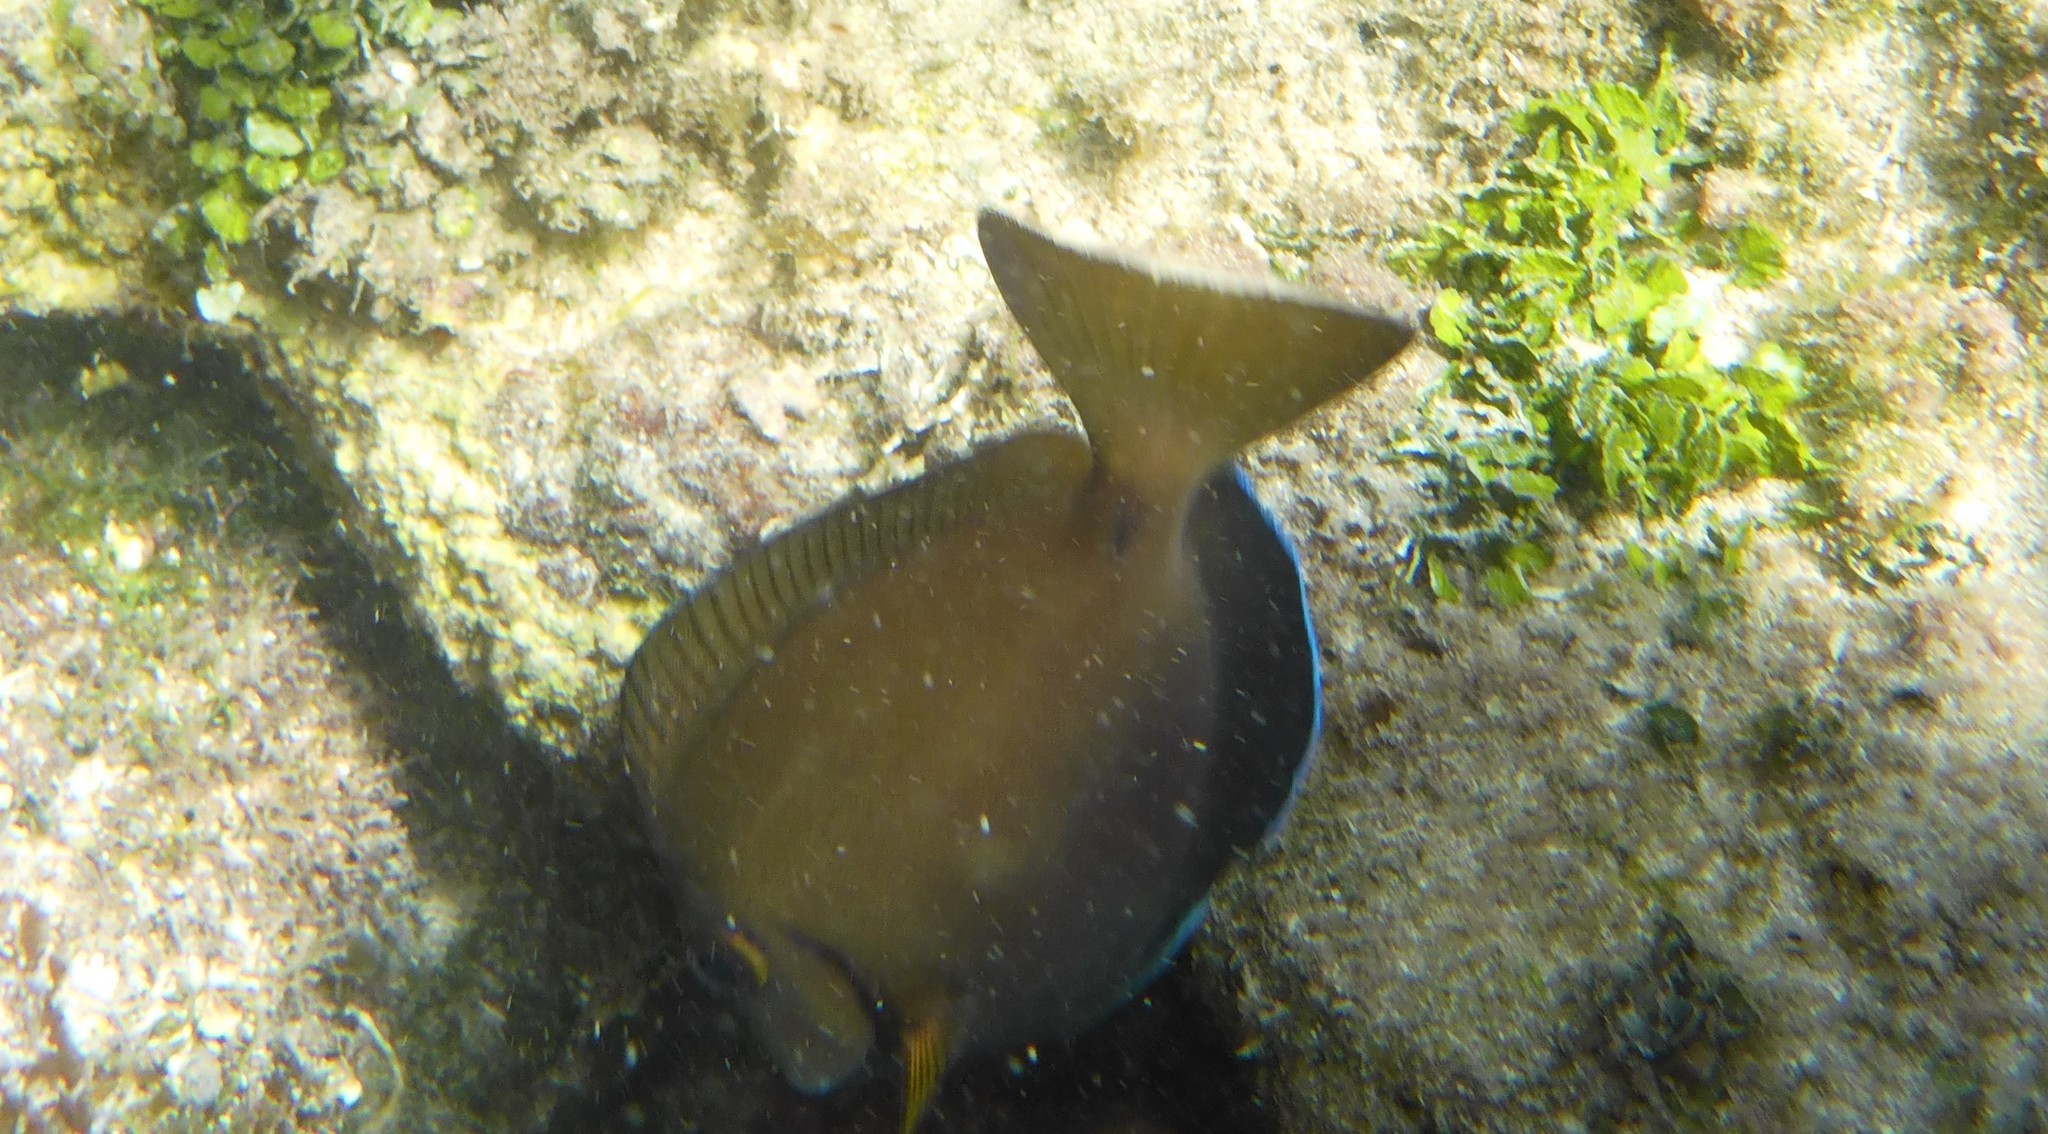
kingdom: Animalia
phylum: Chordata
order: Perciformes
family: Acanthuridae
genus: Acanthurus
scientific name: Acanthurus bahianus
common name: Ocean surgeon
